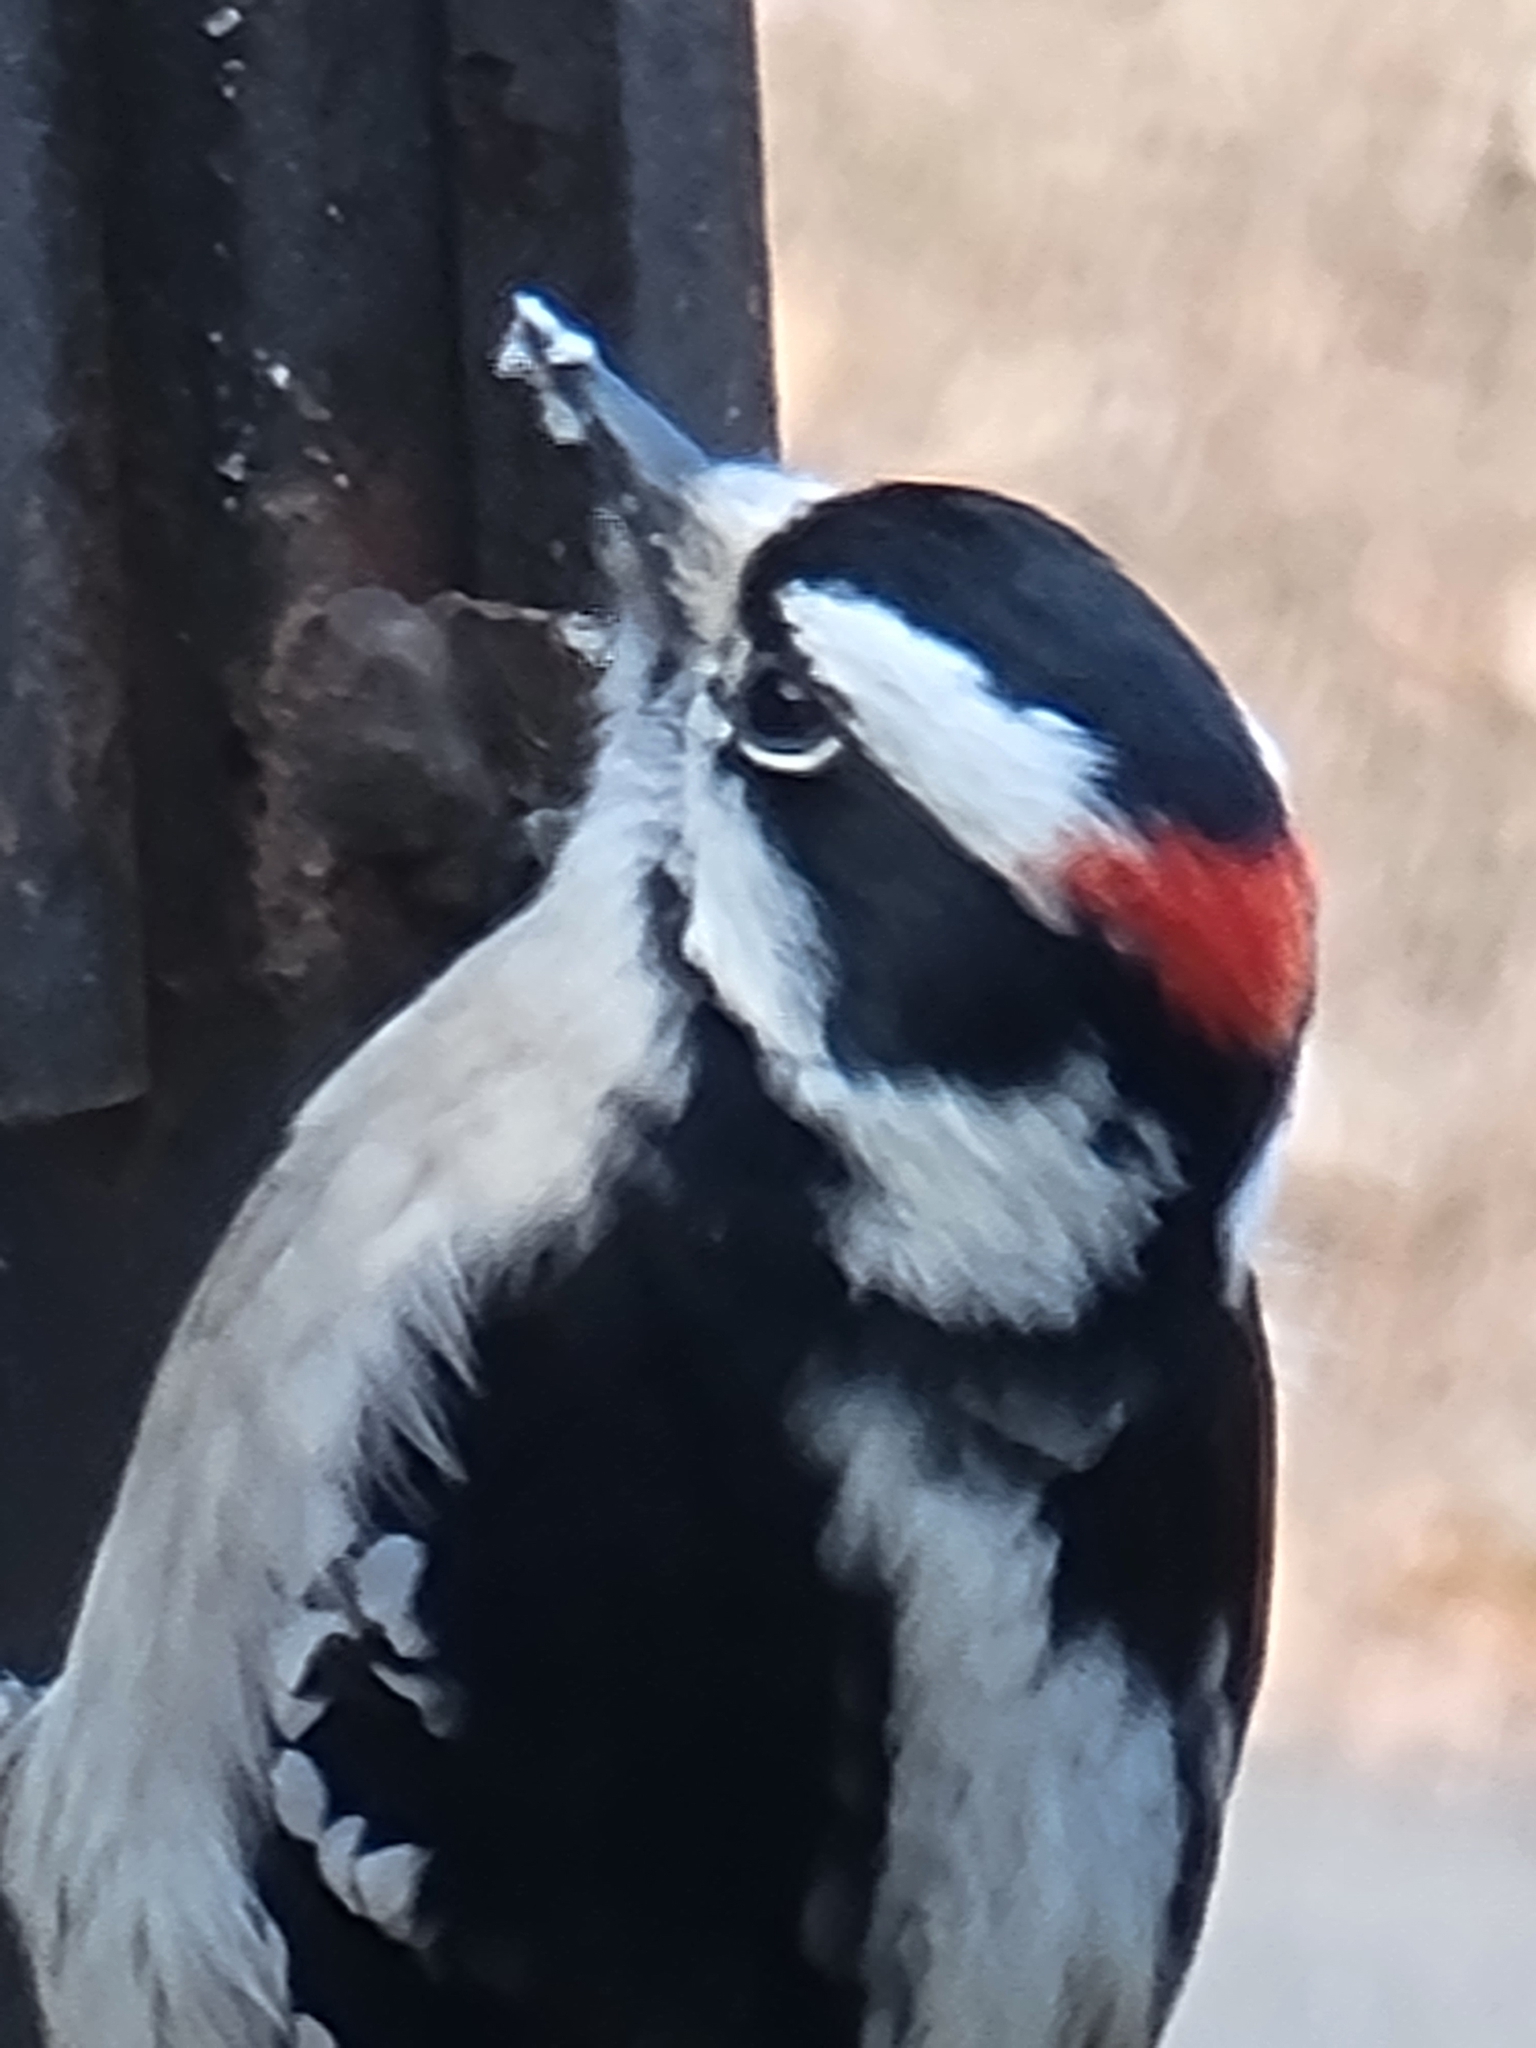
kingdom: Animalia
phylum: Chordata
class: Aves
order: Piciformes
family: Picidae
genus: Dryobates
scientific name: Dryobates pubescens
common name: Downy woodpecker
